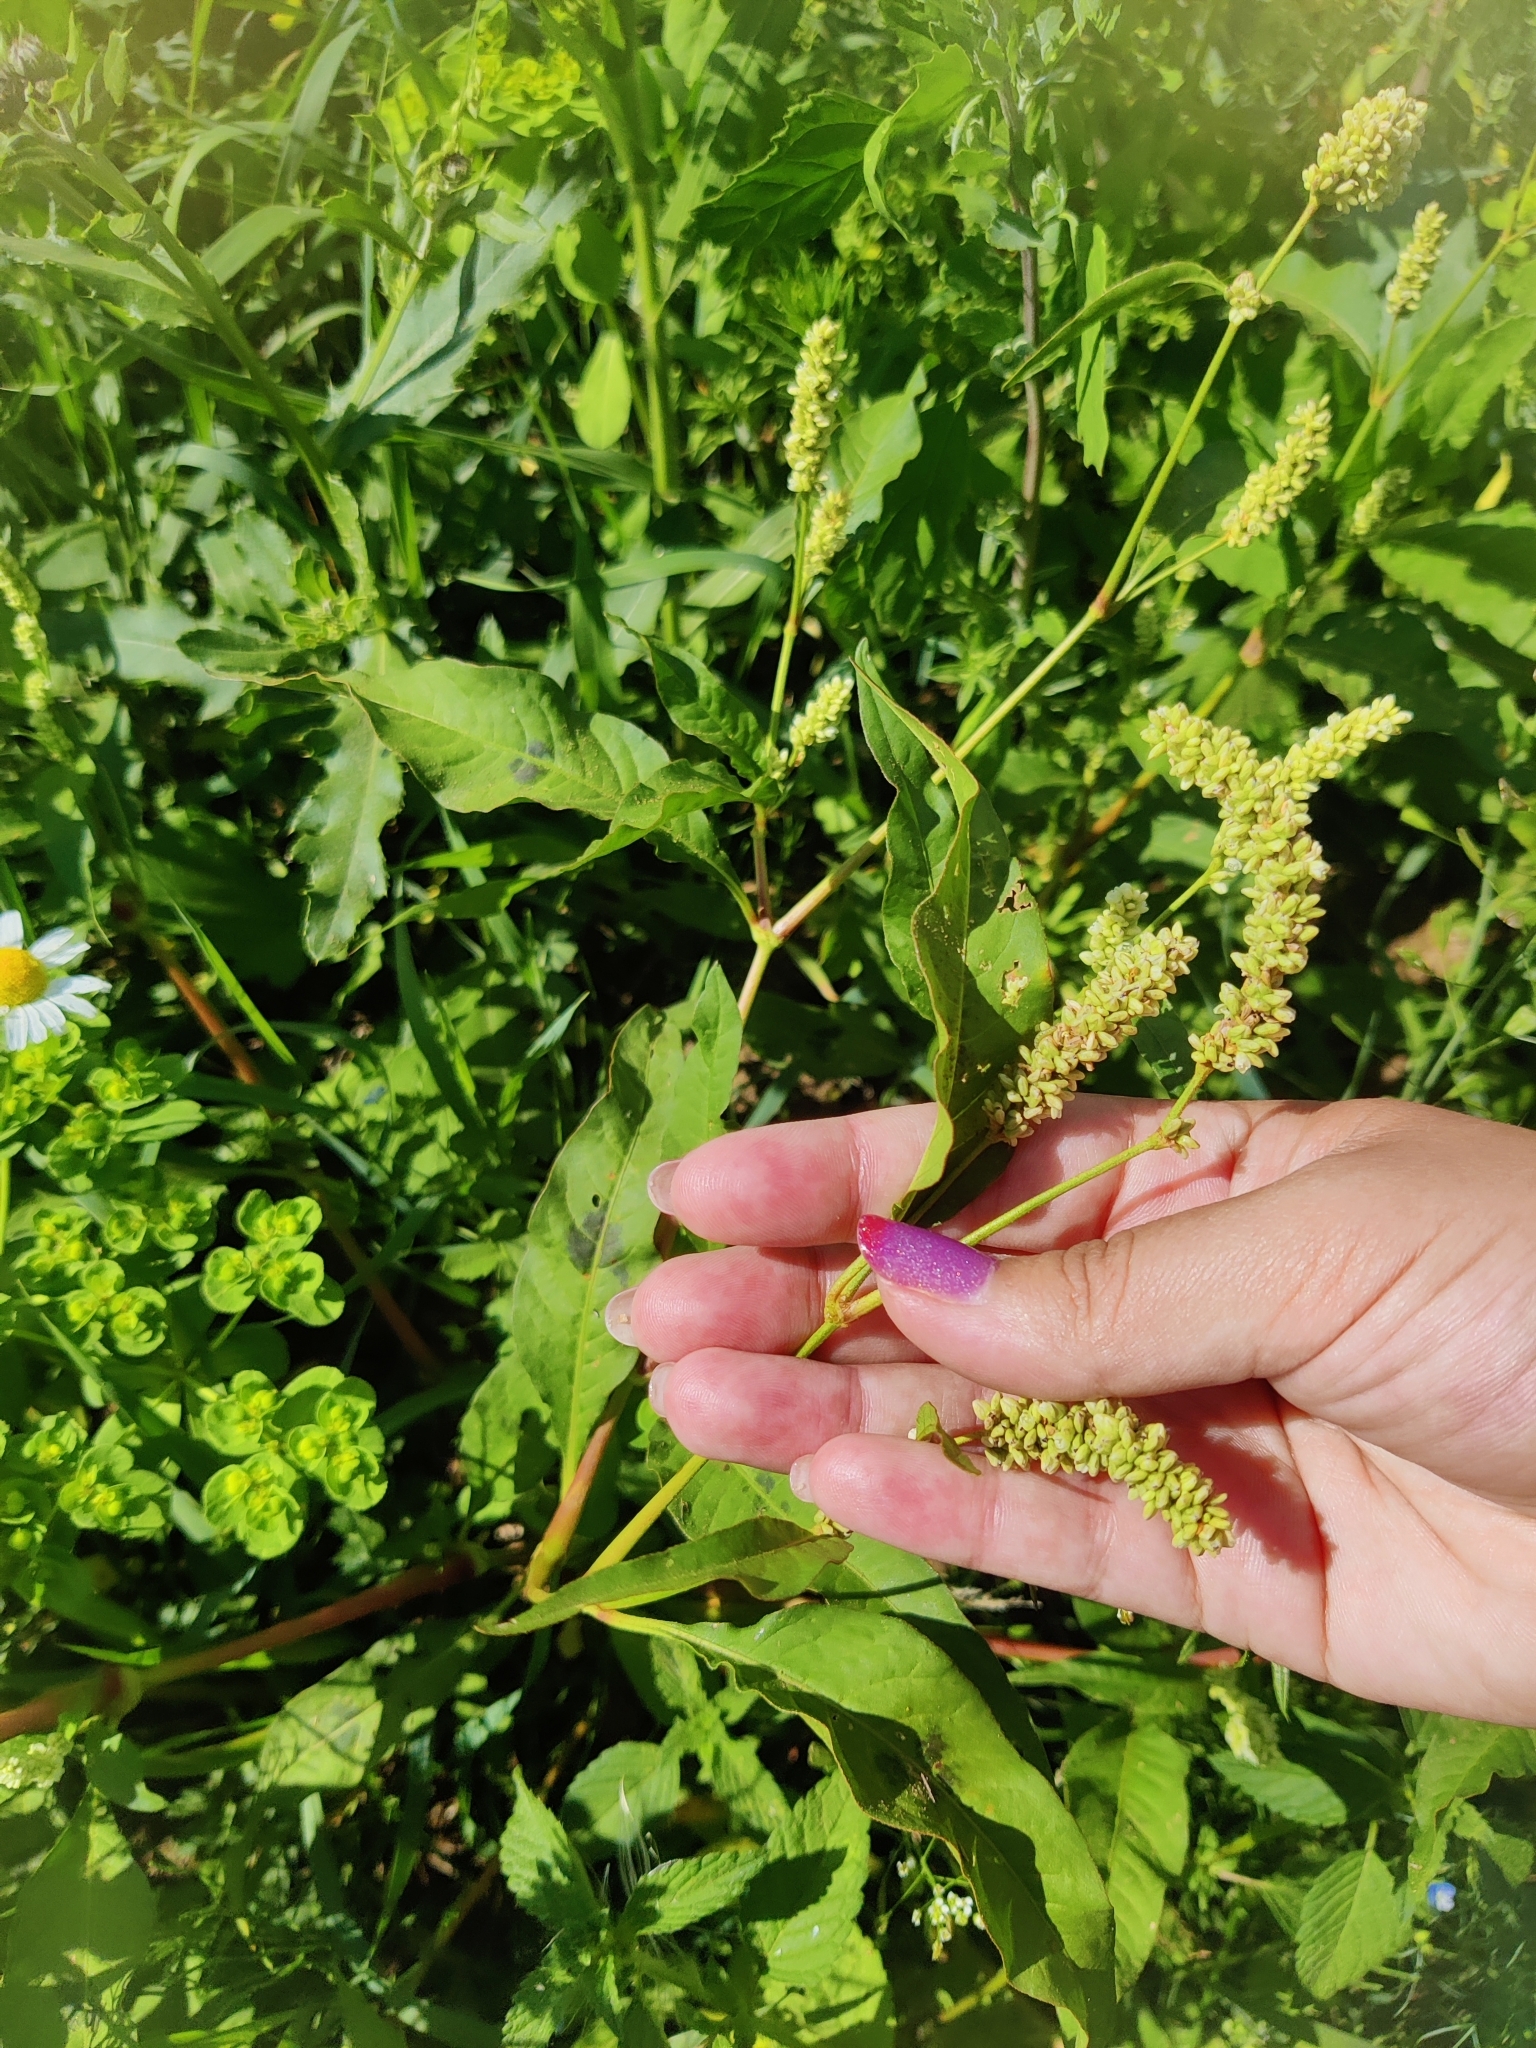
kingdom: Plantae
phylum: Tracheophyta
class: Magnoliopsida
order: Caryophyllales
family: Polygonaceae
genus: Persicaria
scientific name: Persicaria lapathifolia
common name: Curlytop knotweed
